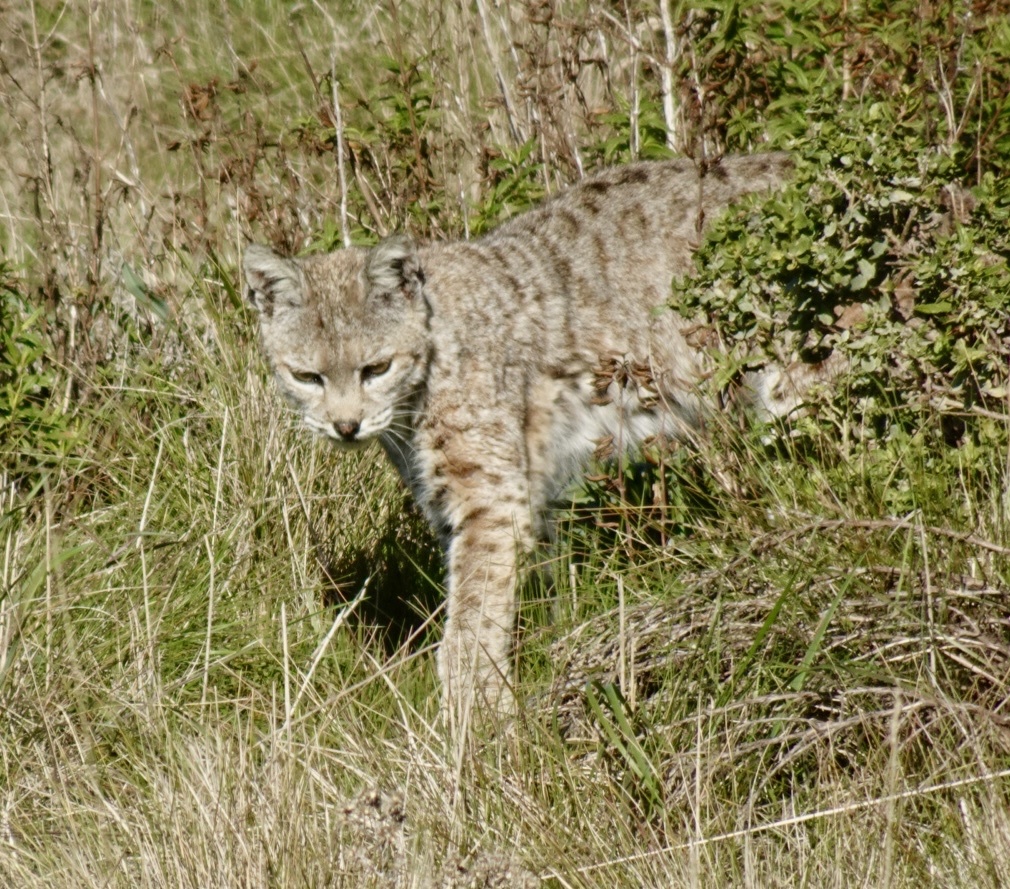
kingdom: Animalia
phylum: Chordata
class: Mammalia
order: Carnivora
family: Felidae
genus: Lynx
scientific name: Lynx rufus
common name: Bobcat
